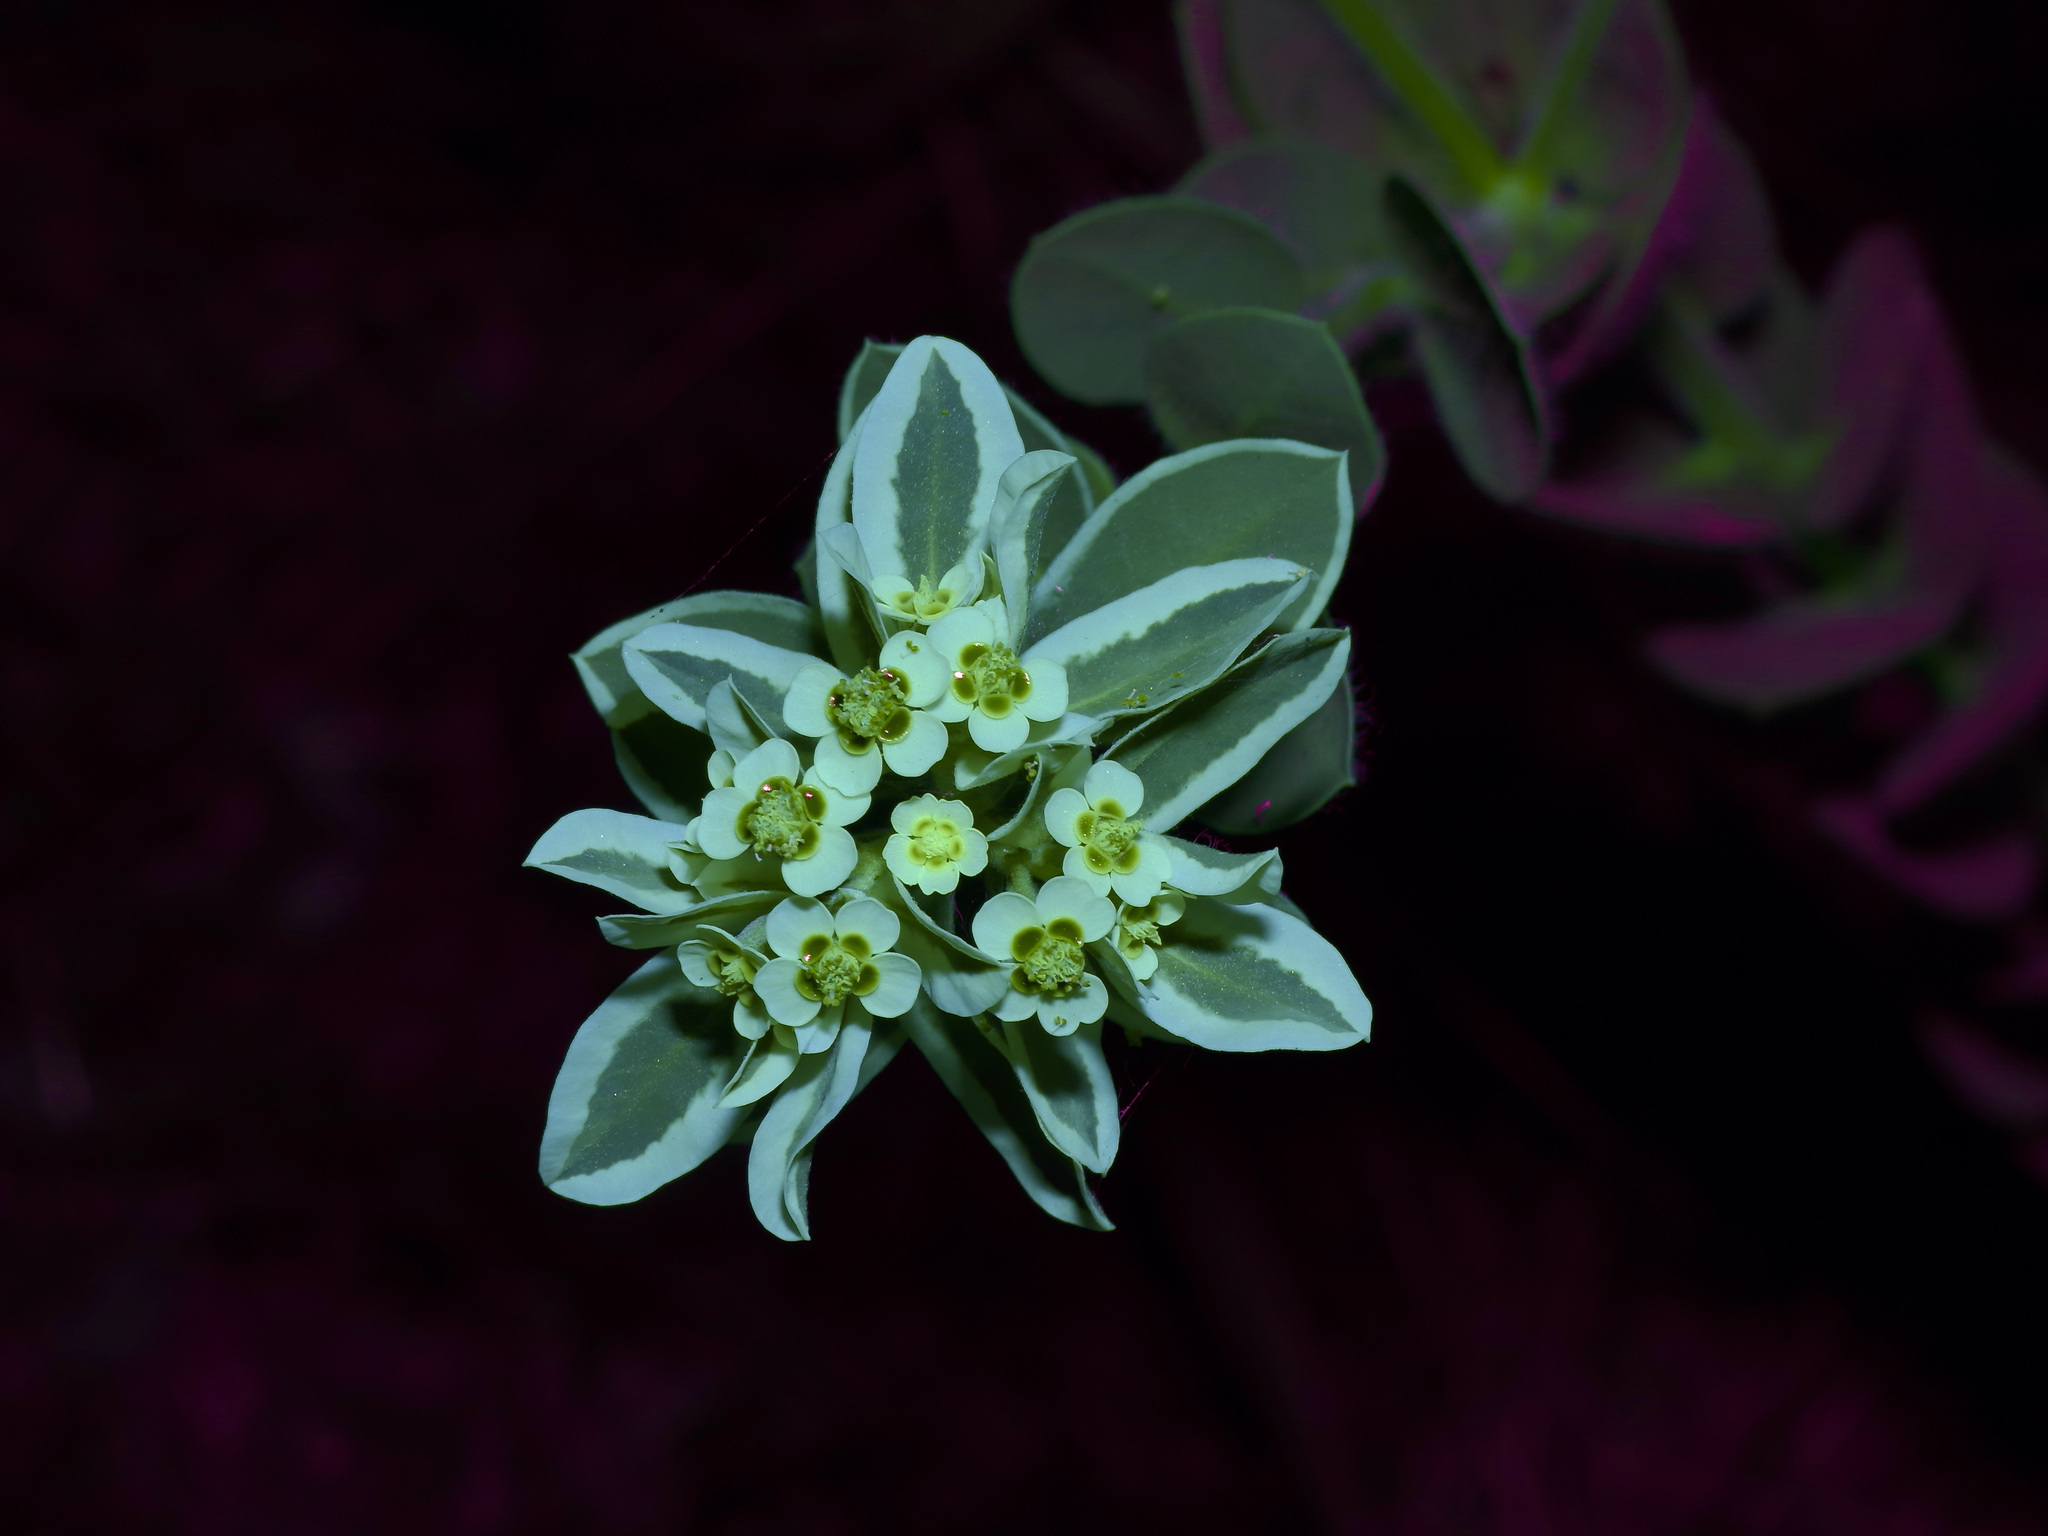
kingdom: Plantae
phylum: Tracheophyta
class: Magnoliopsida
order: Malpighiales
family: Euphorbiaceae
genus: Euphorbia
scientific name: Euphorbia marginata
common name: Ghostweed
